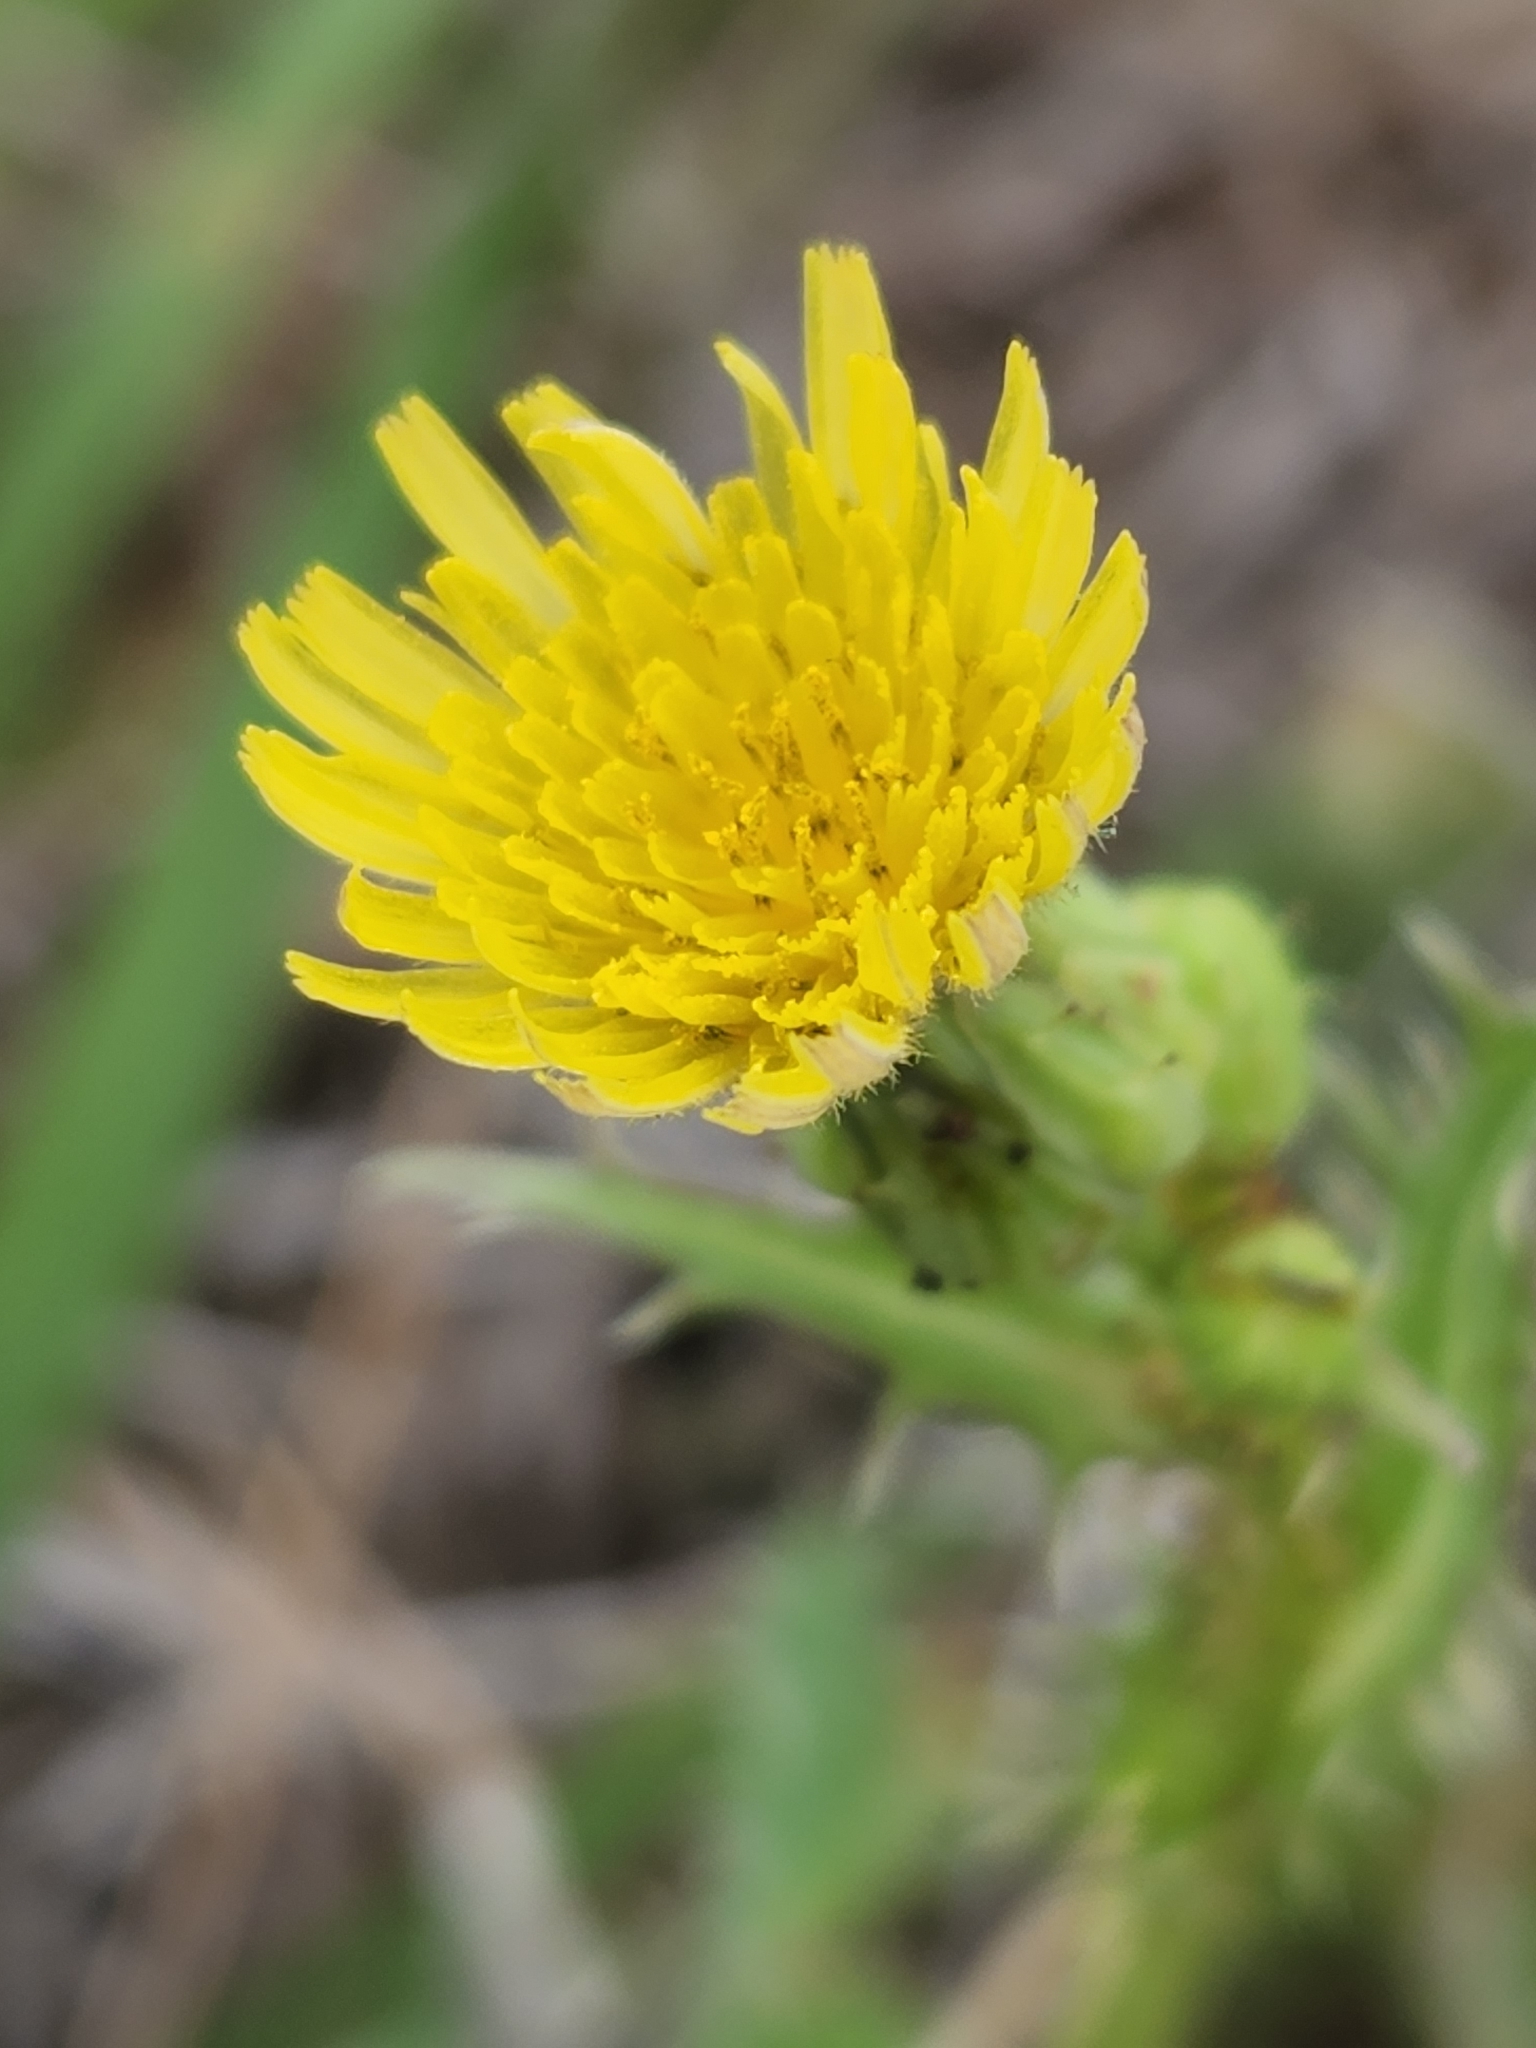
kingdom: Plantae
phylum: Tracheophyta
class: Magnoliopsida
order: Asterales
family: Asteraceae
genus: Sonchus
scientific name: Sonchus asper
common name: Prickly sow-thistle
